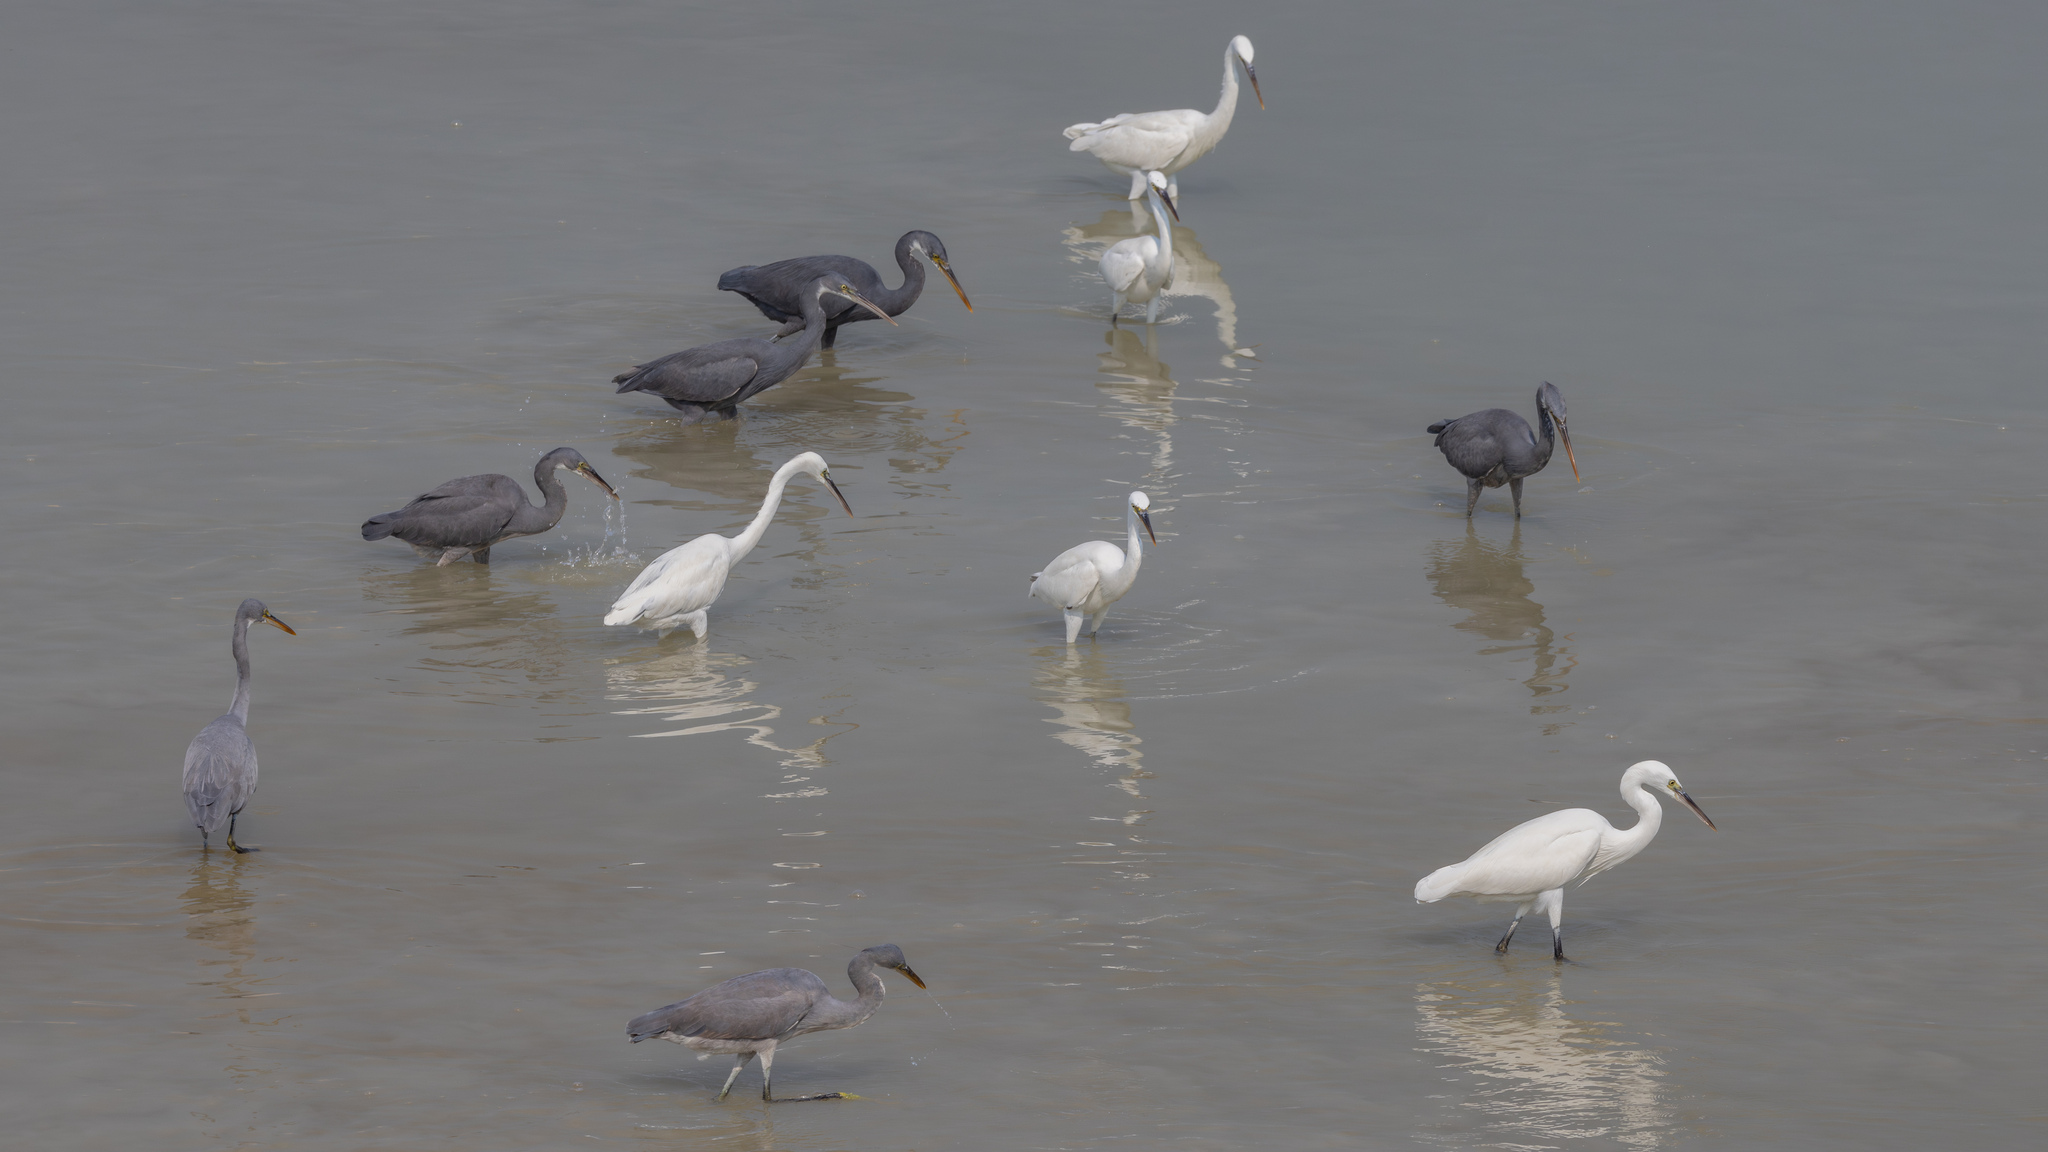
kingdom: Animalia
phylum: Chordata
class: Aves
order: Pelecaniformes
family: Ardeidae
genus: Egretta
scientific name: Egretta gularis
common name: Western reef-heron
